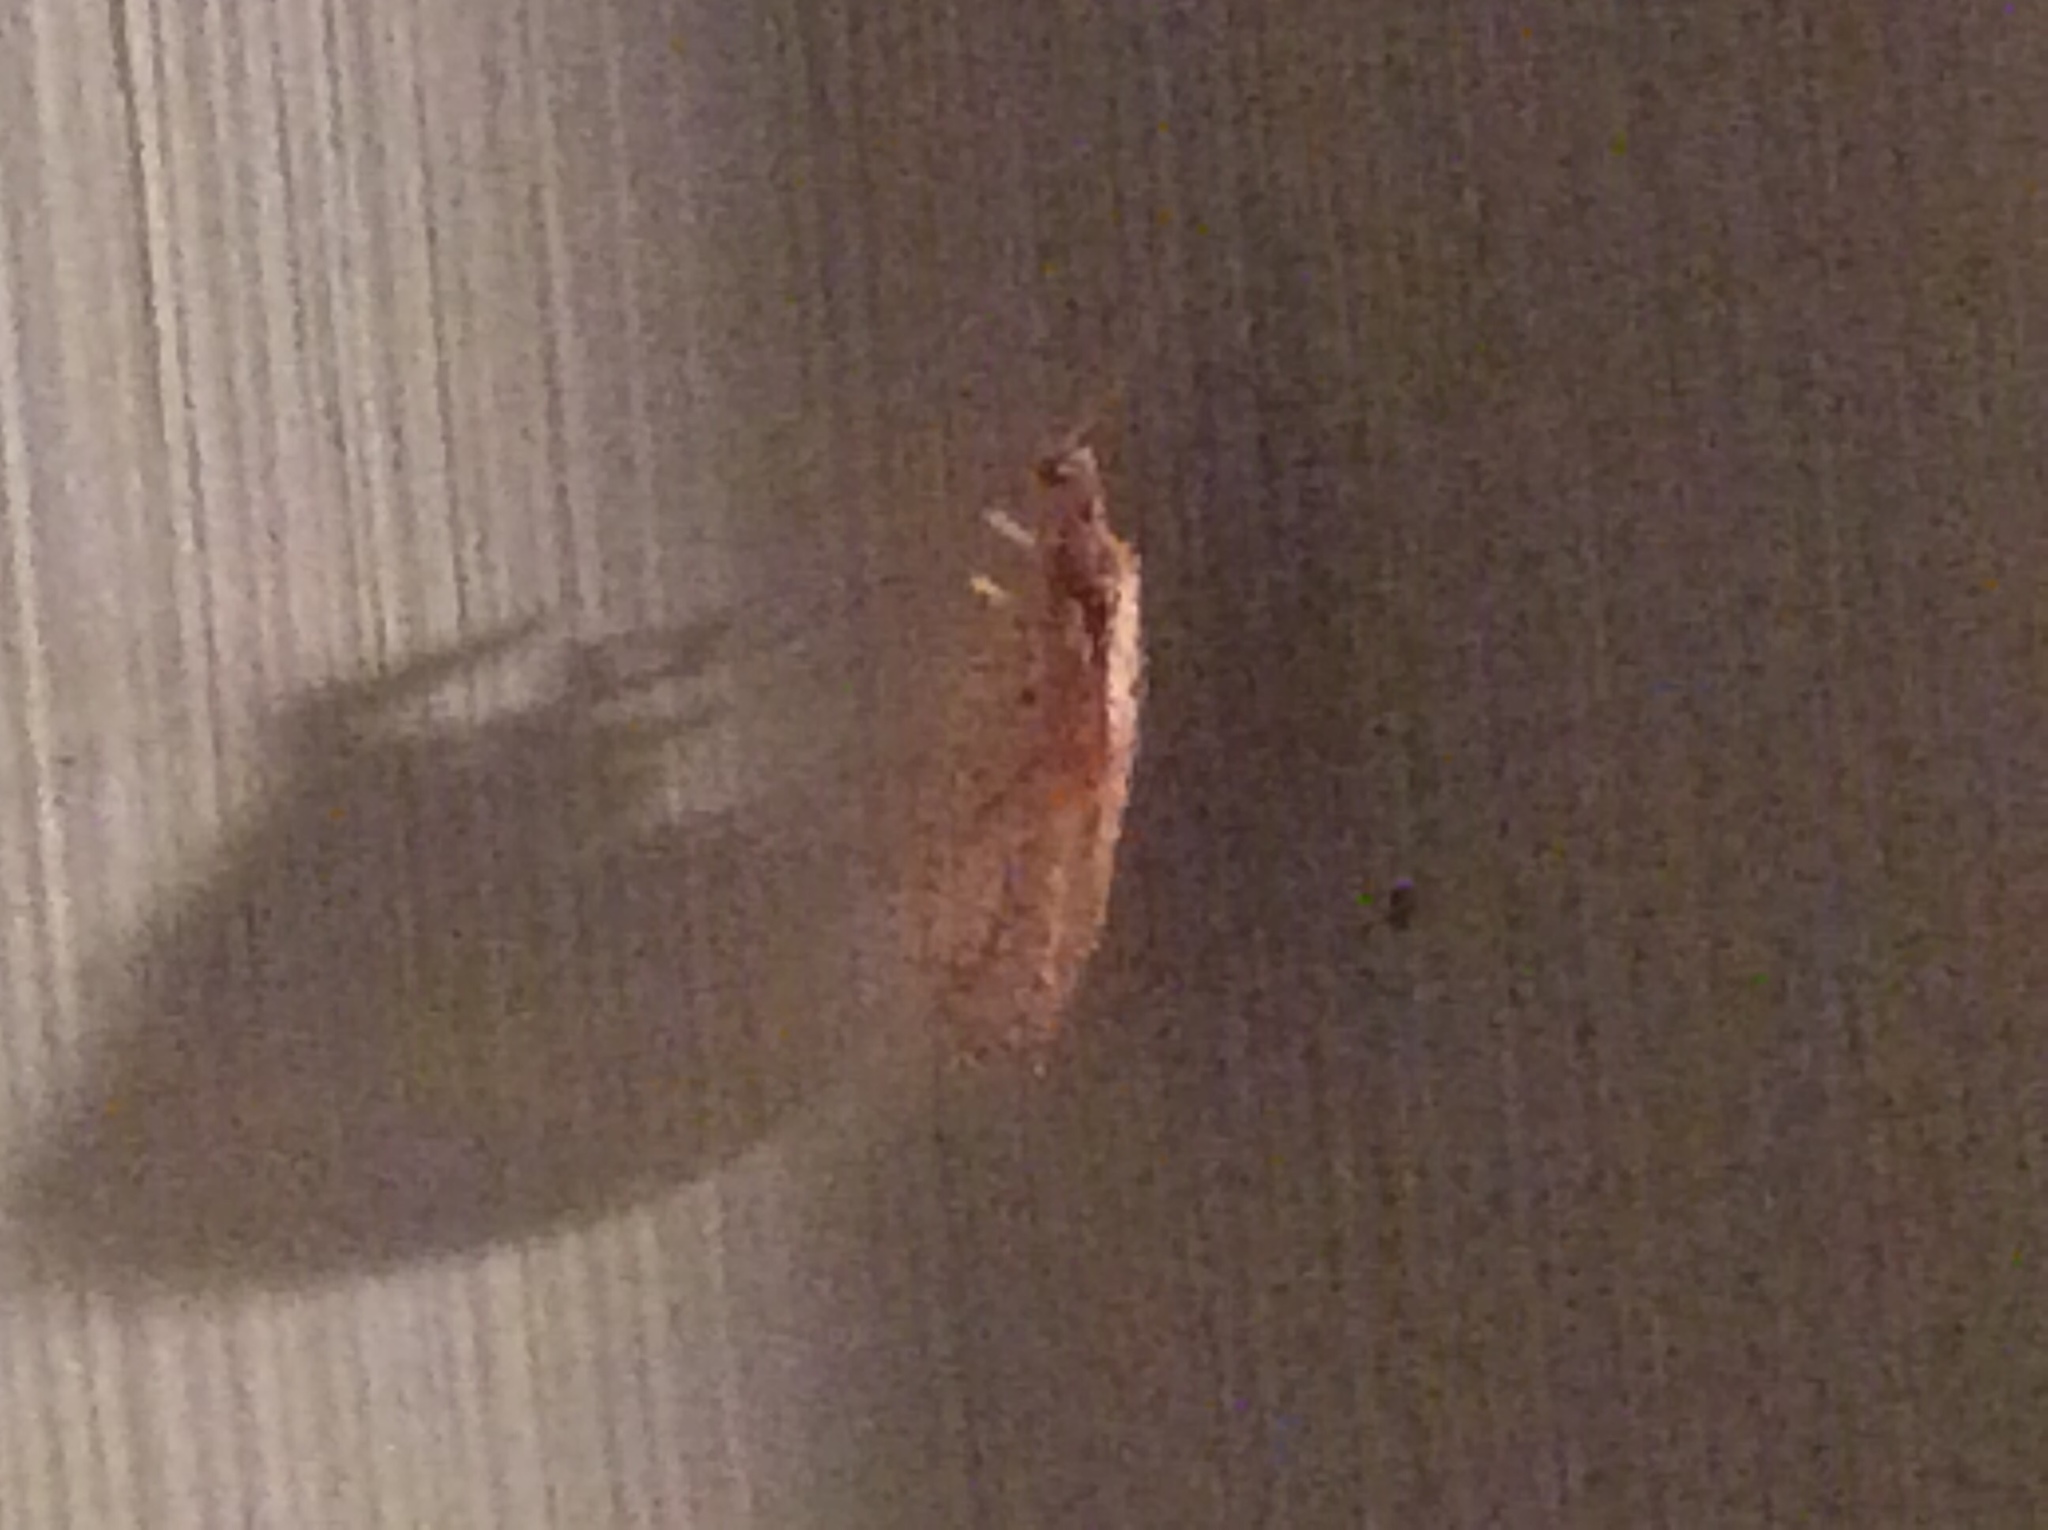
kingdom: Animalia
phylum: Arthropoda
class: Insecta
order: Neuroptera
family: Hemerobiidae
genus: Micromus
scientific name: Micromus posticus
